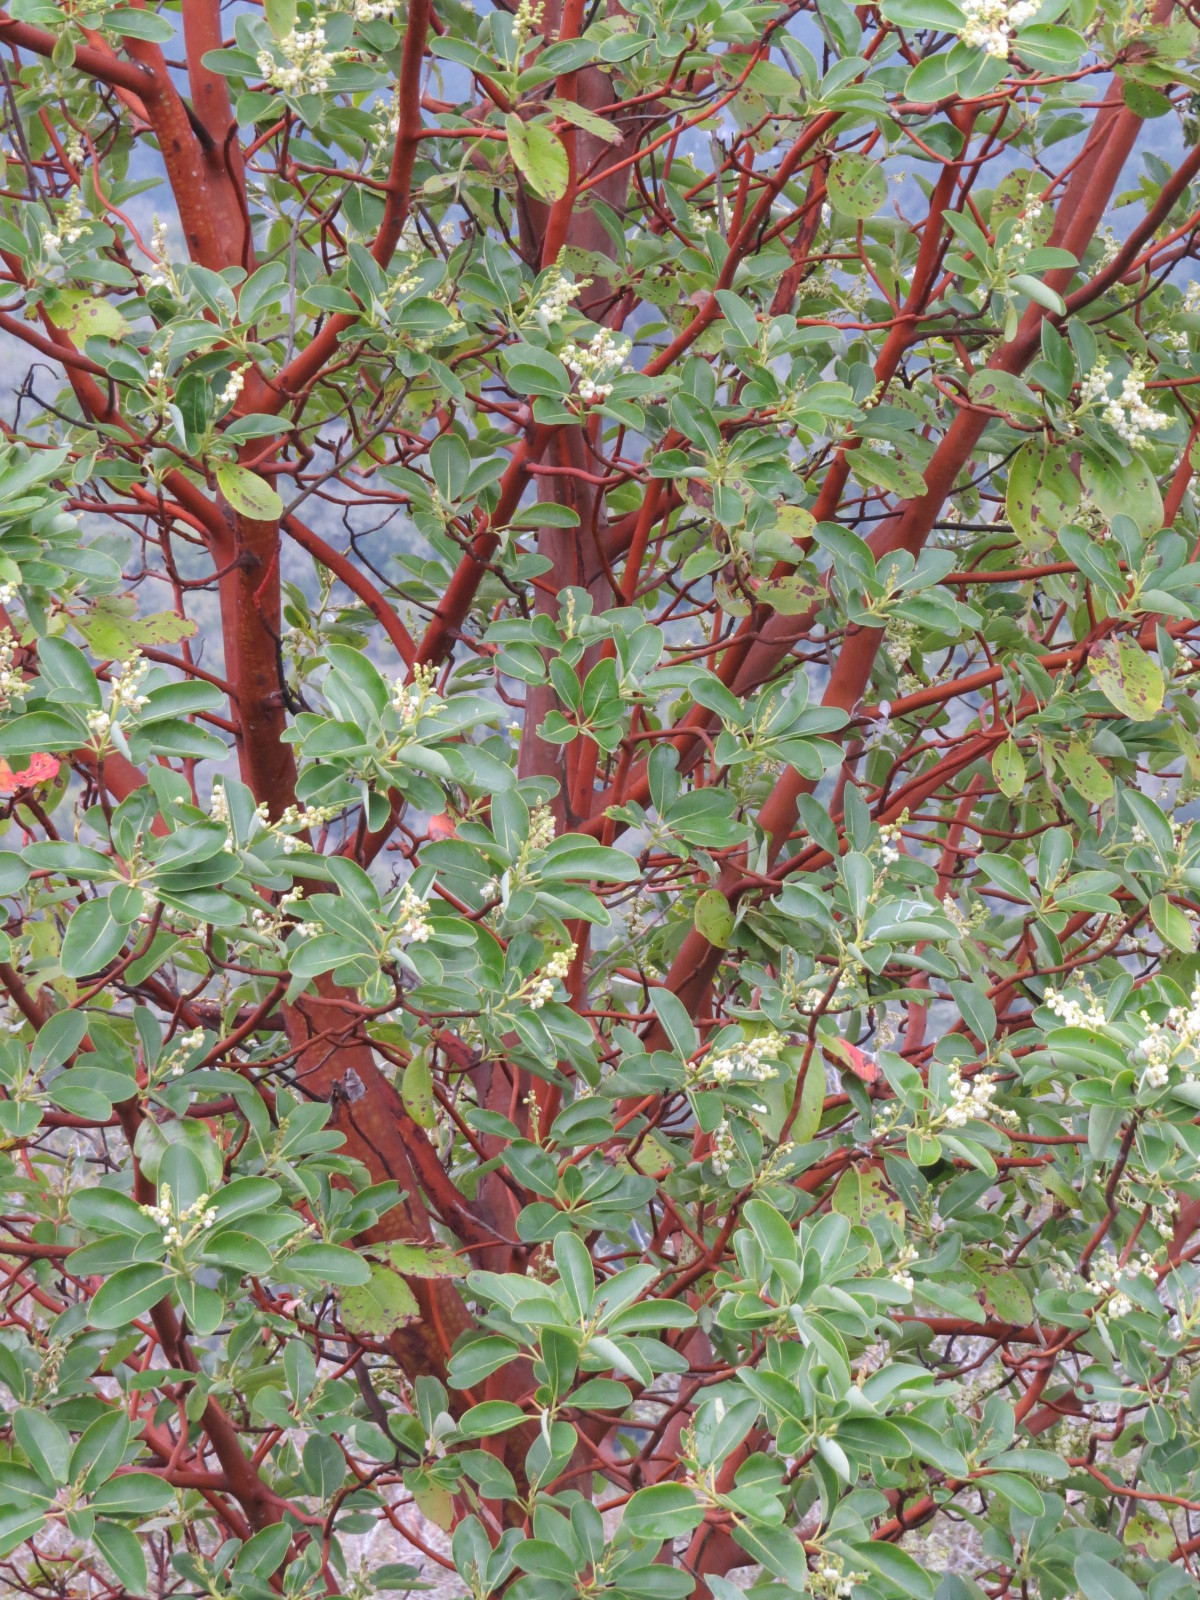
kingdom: Plantae
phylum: Tracheophyta
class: Magnoliopsida
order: Ericales
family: Ericaceae
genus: Arbutus
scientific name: Arbutus menziesii
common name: Pacific madrone
